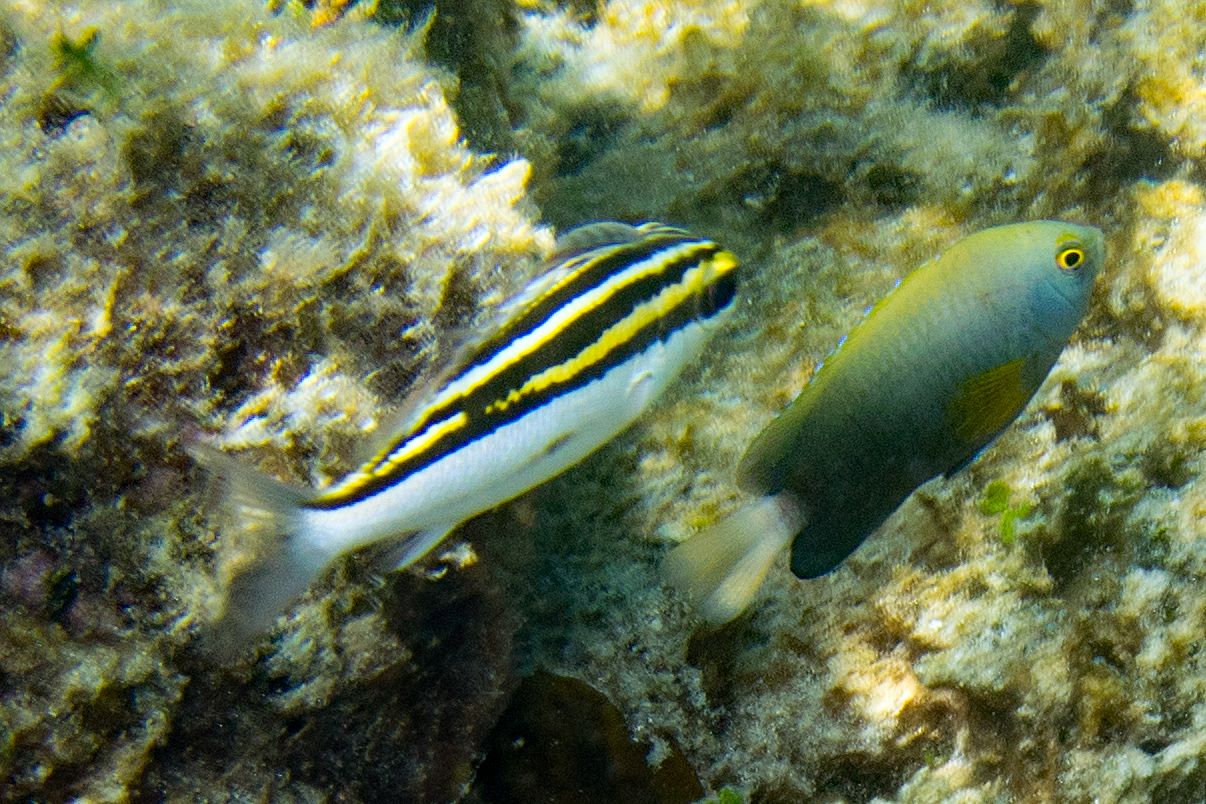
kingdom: Animalia
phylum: Chordata
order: Perciformes
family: Nemipteridae
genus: Scolopsis
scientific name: Scolopsis bilineata
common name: Two-lined monocle bream
